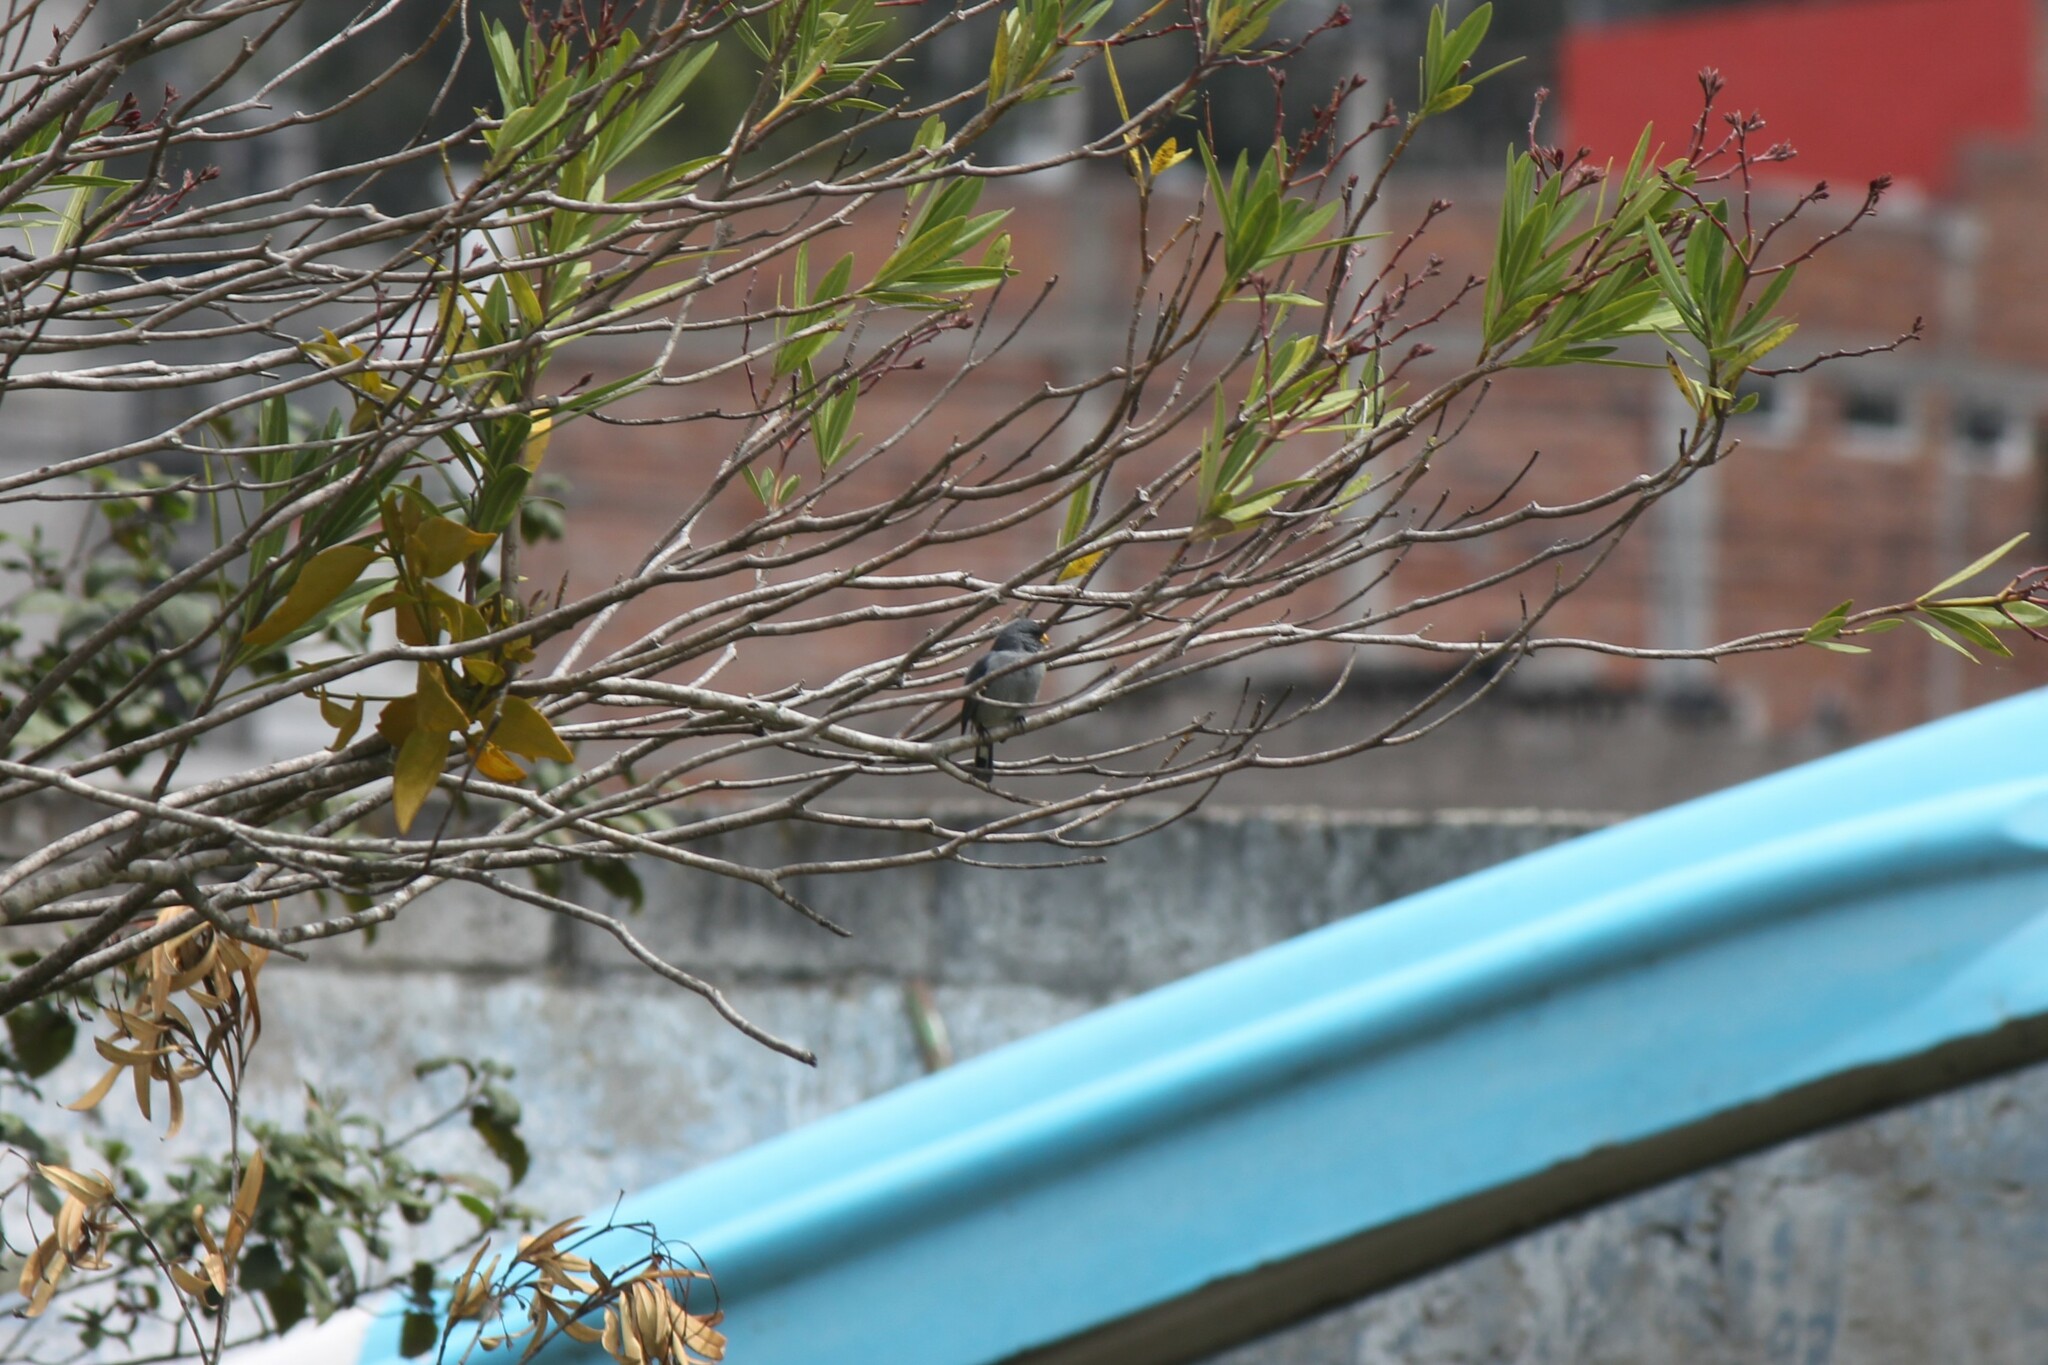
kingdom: Animalia
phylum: Chordata
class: Aves
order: Passeriformes
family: Thraupidae
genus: Catamenia
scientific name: Catamenia analis
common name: Band-tailed seedeater
